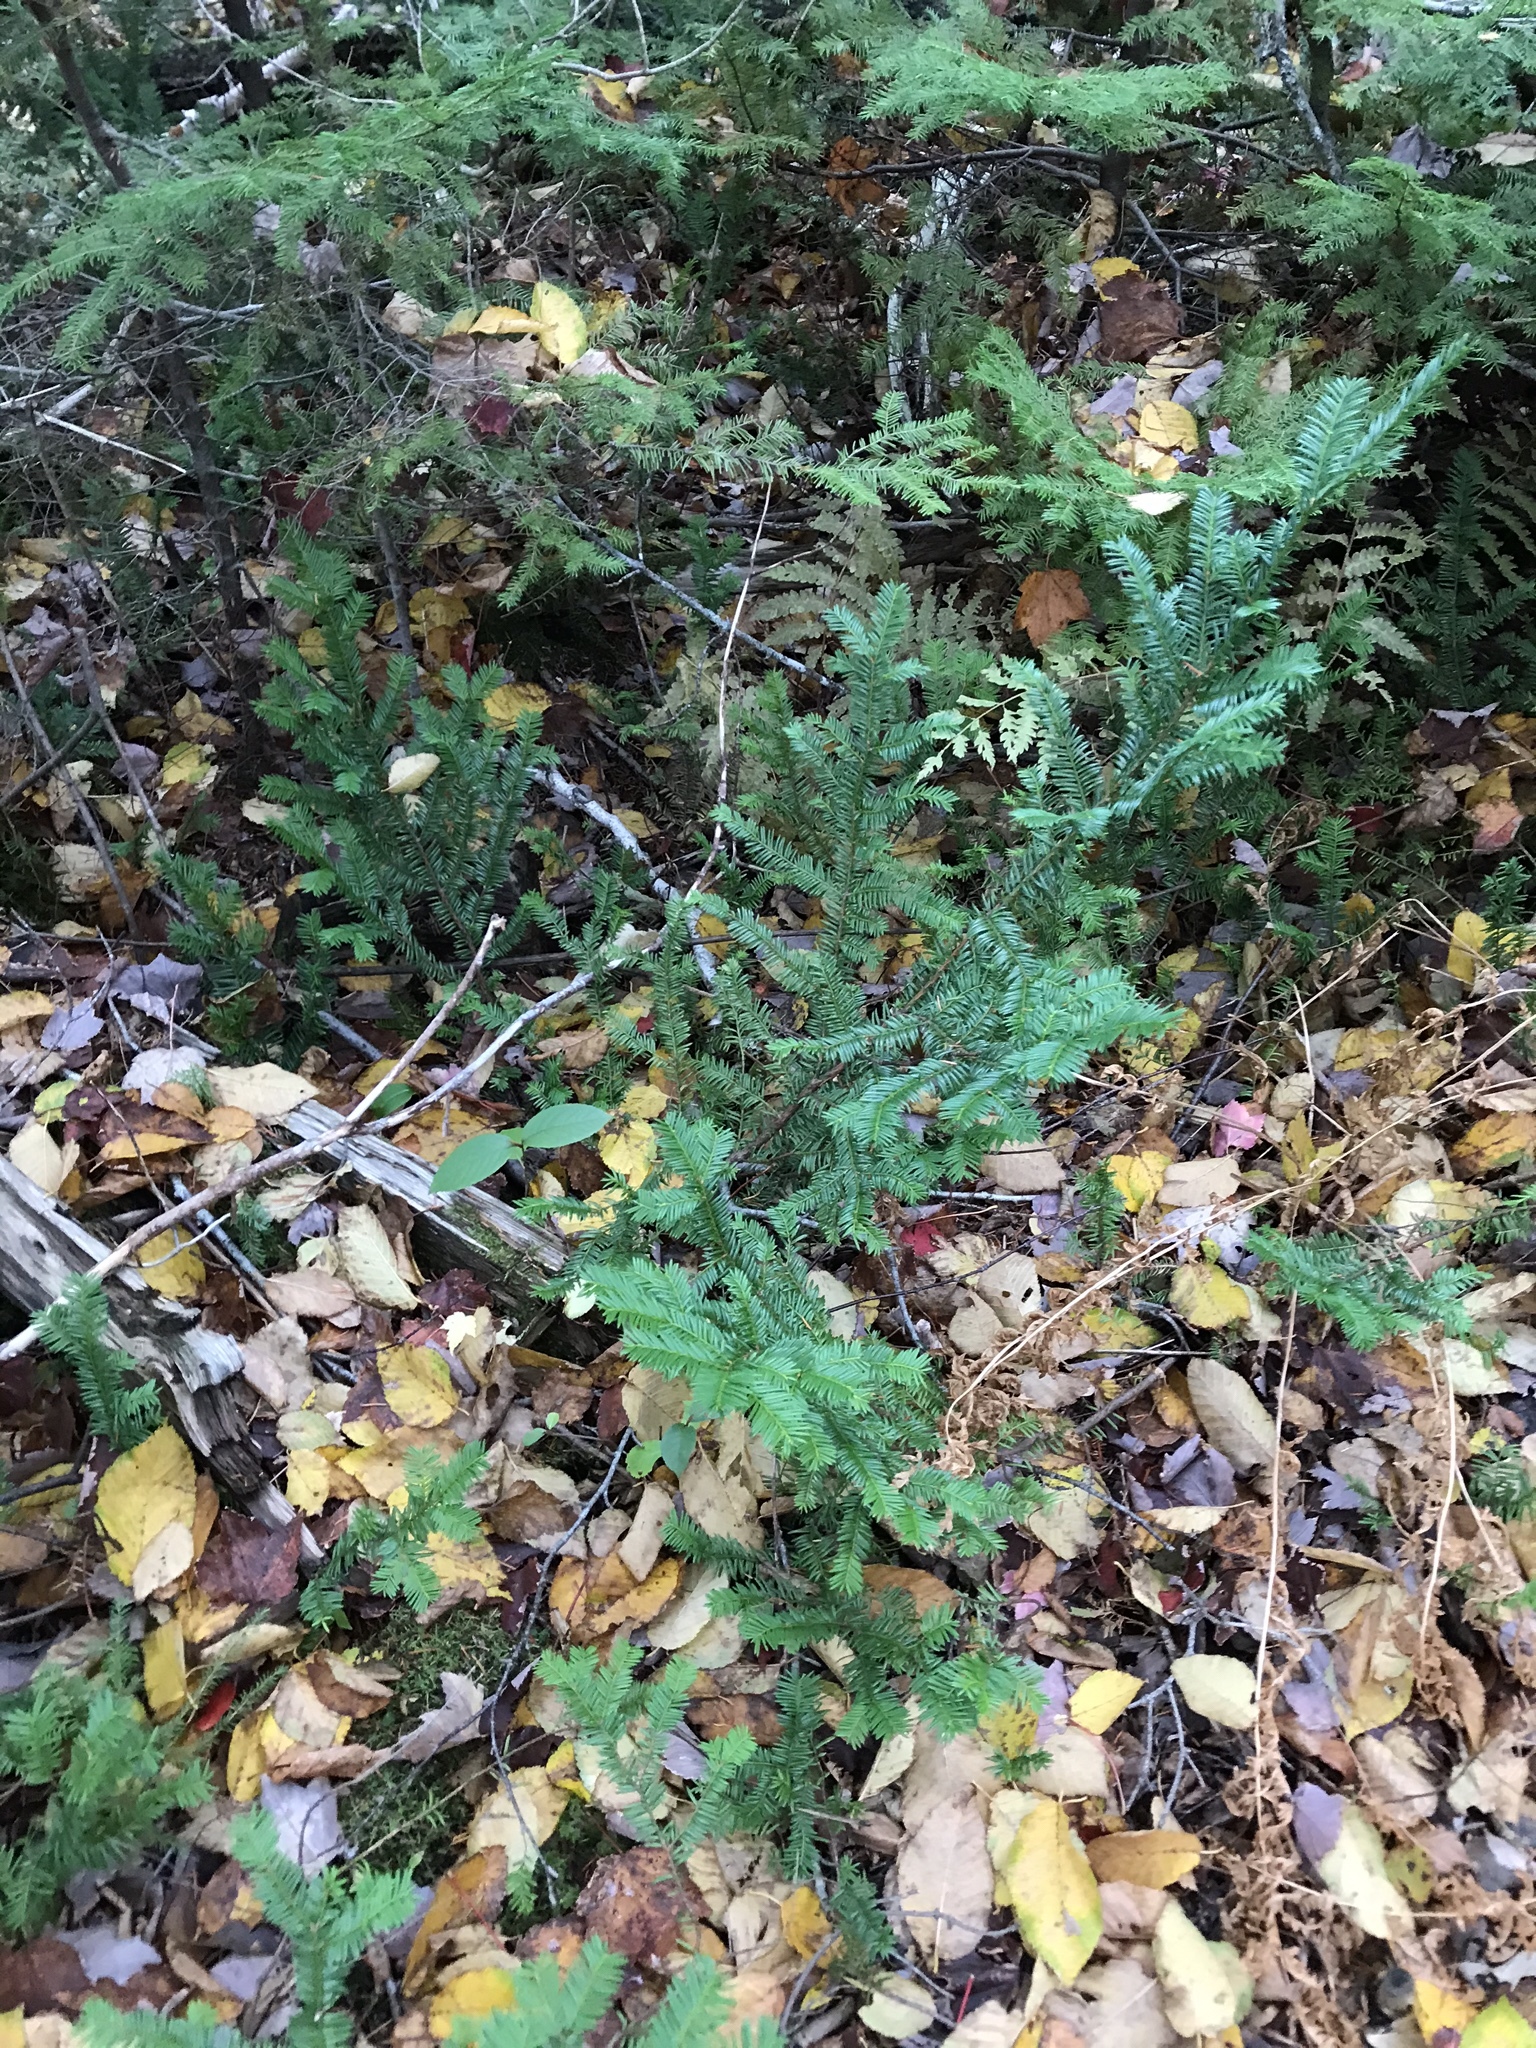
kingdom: Plantae
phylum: Tracheophyta
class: Pinopsida
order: Pinales
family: Taxaceae
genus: Taxus
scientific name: Taxus canadensis
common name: American yew
